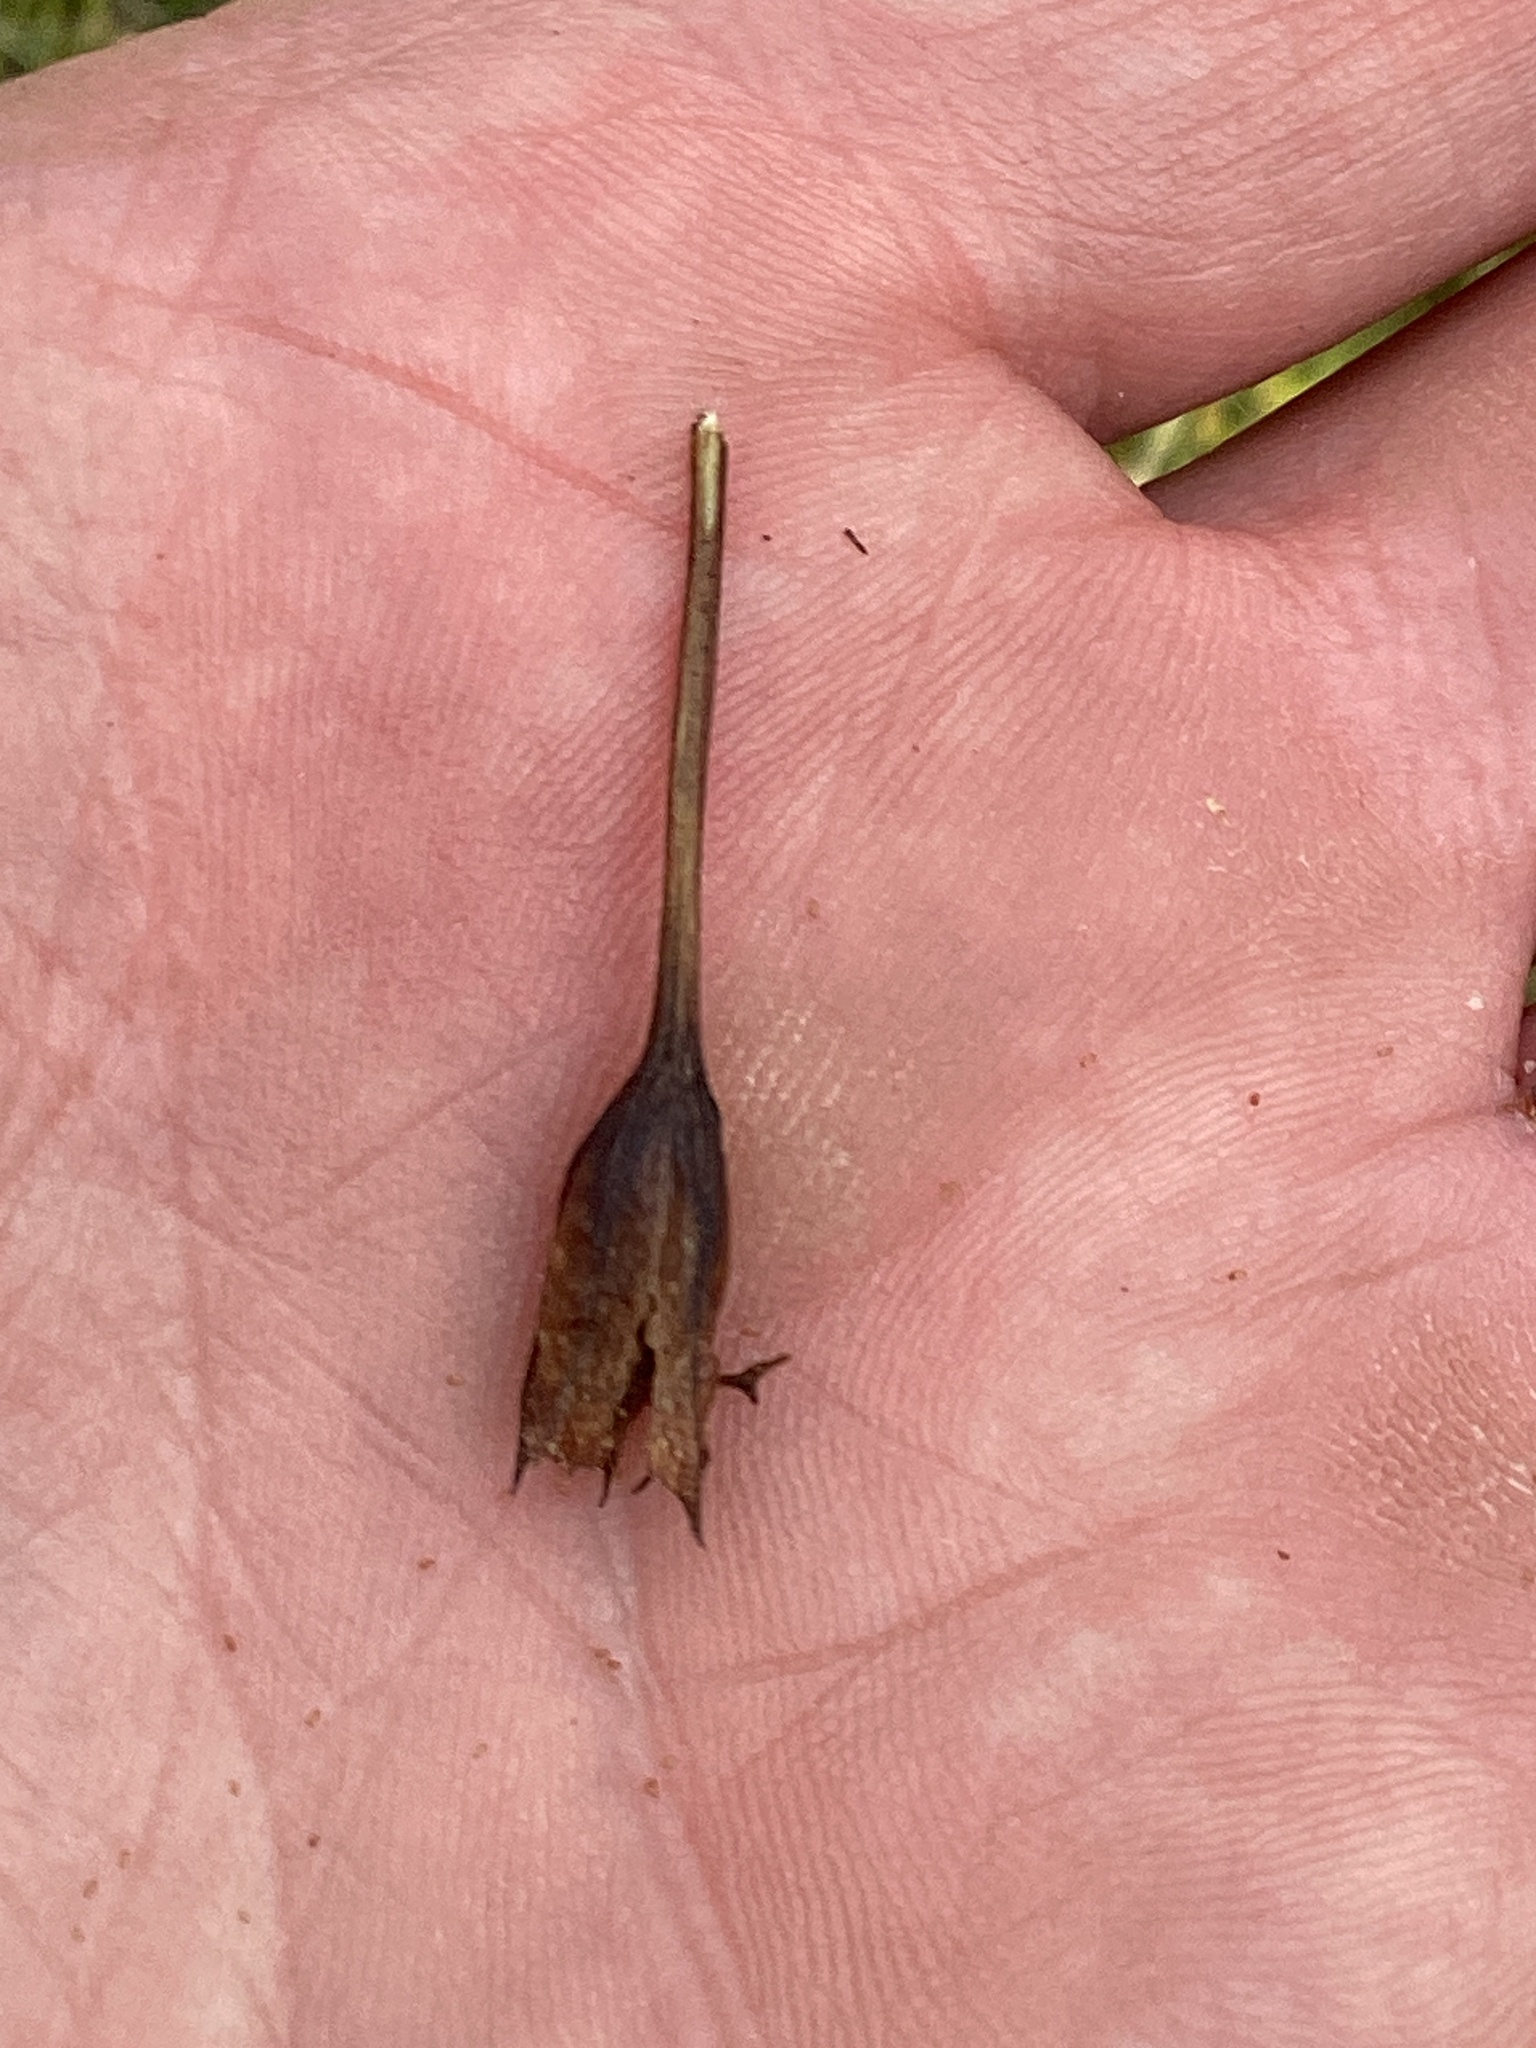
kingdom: Plantae
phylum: Tracheophyta
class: Magnoliopsida
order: Lamiales
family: Phrymaceae
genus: Mimulus
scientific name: Mimulus ringens
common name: Allegheny monkeyflower
